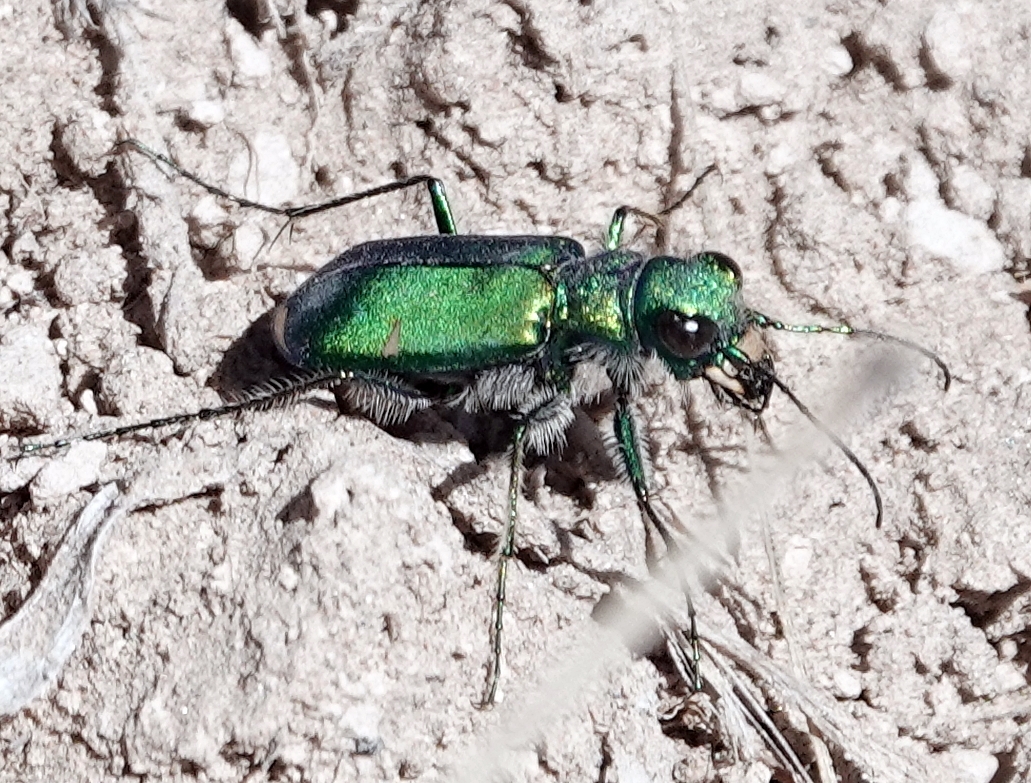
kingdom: Animalia
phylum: Arthropoda
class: Insecta
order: Coleoptera
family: Carabidae
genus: Cicindela
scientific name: Cicindela denverensis
